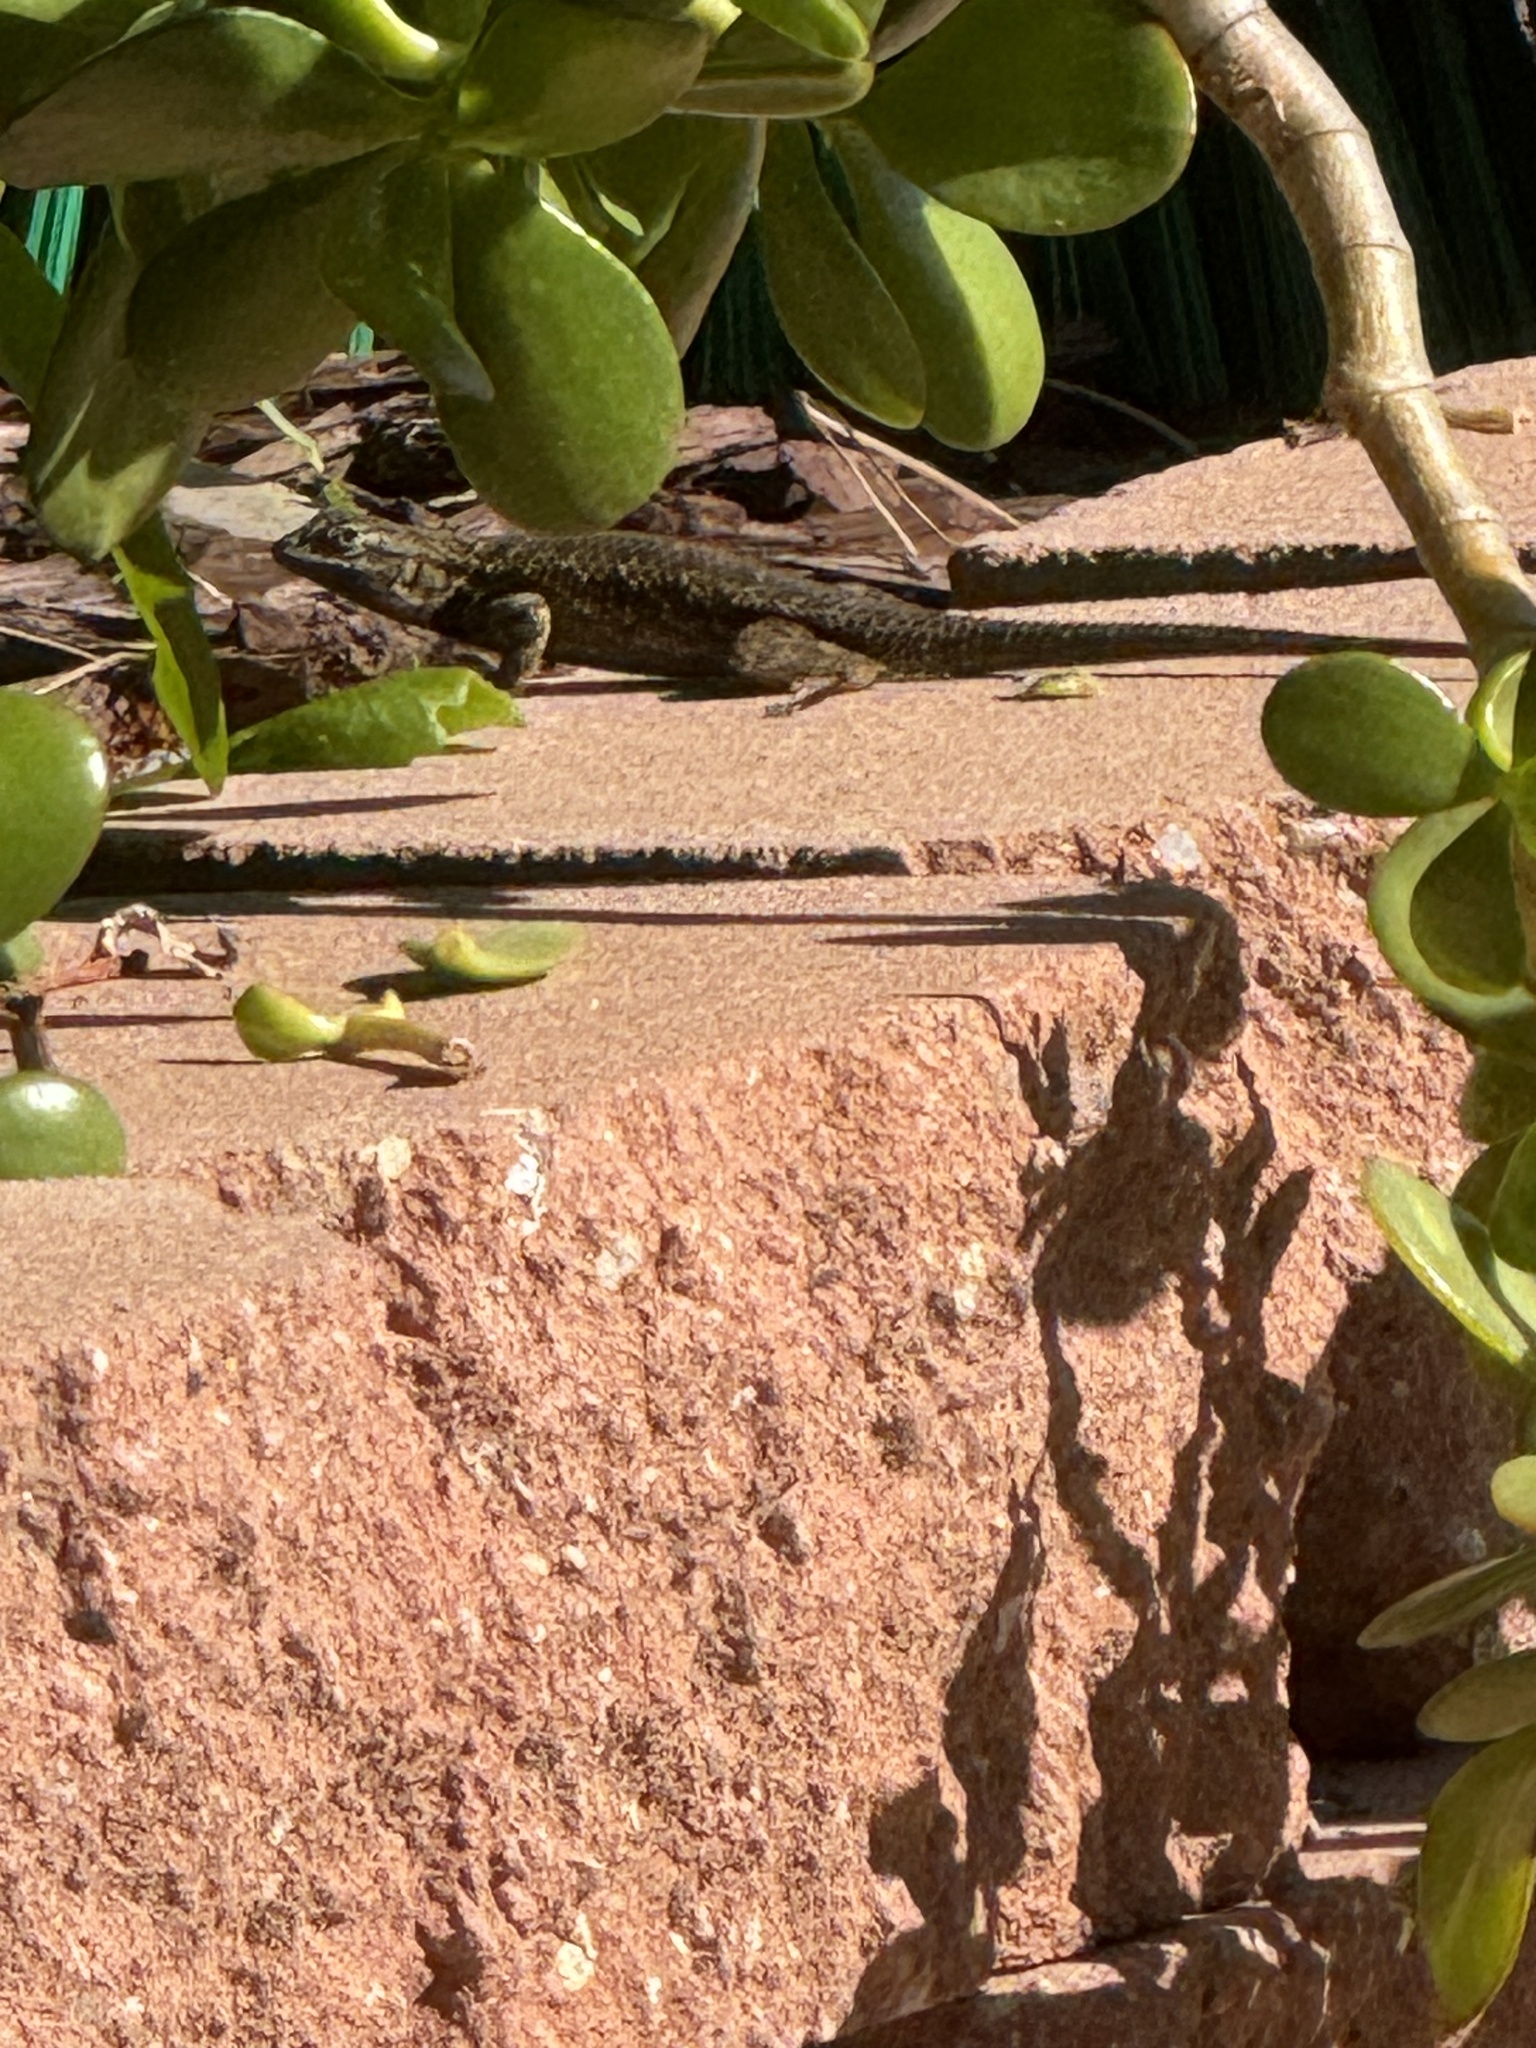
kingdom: Animalia
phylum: Chordata
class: Squamata
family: Phrynosomatidae
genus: Sceloporus
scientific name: Sceloporus occidentalis
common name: Western fence lizard
